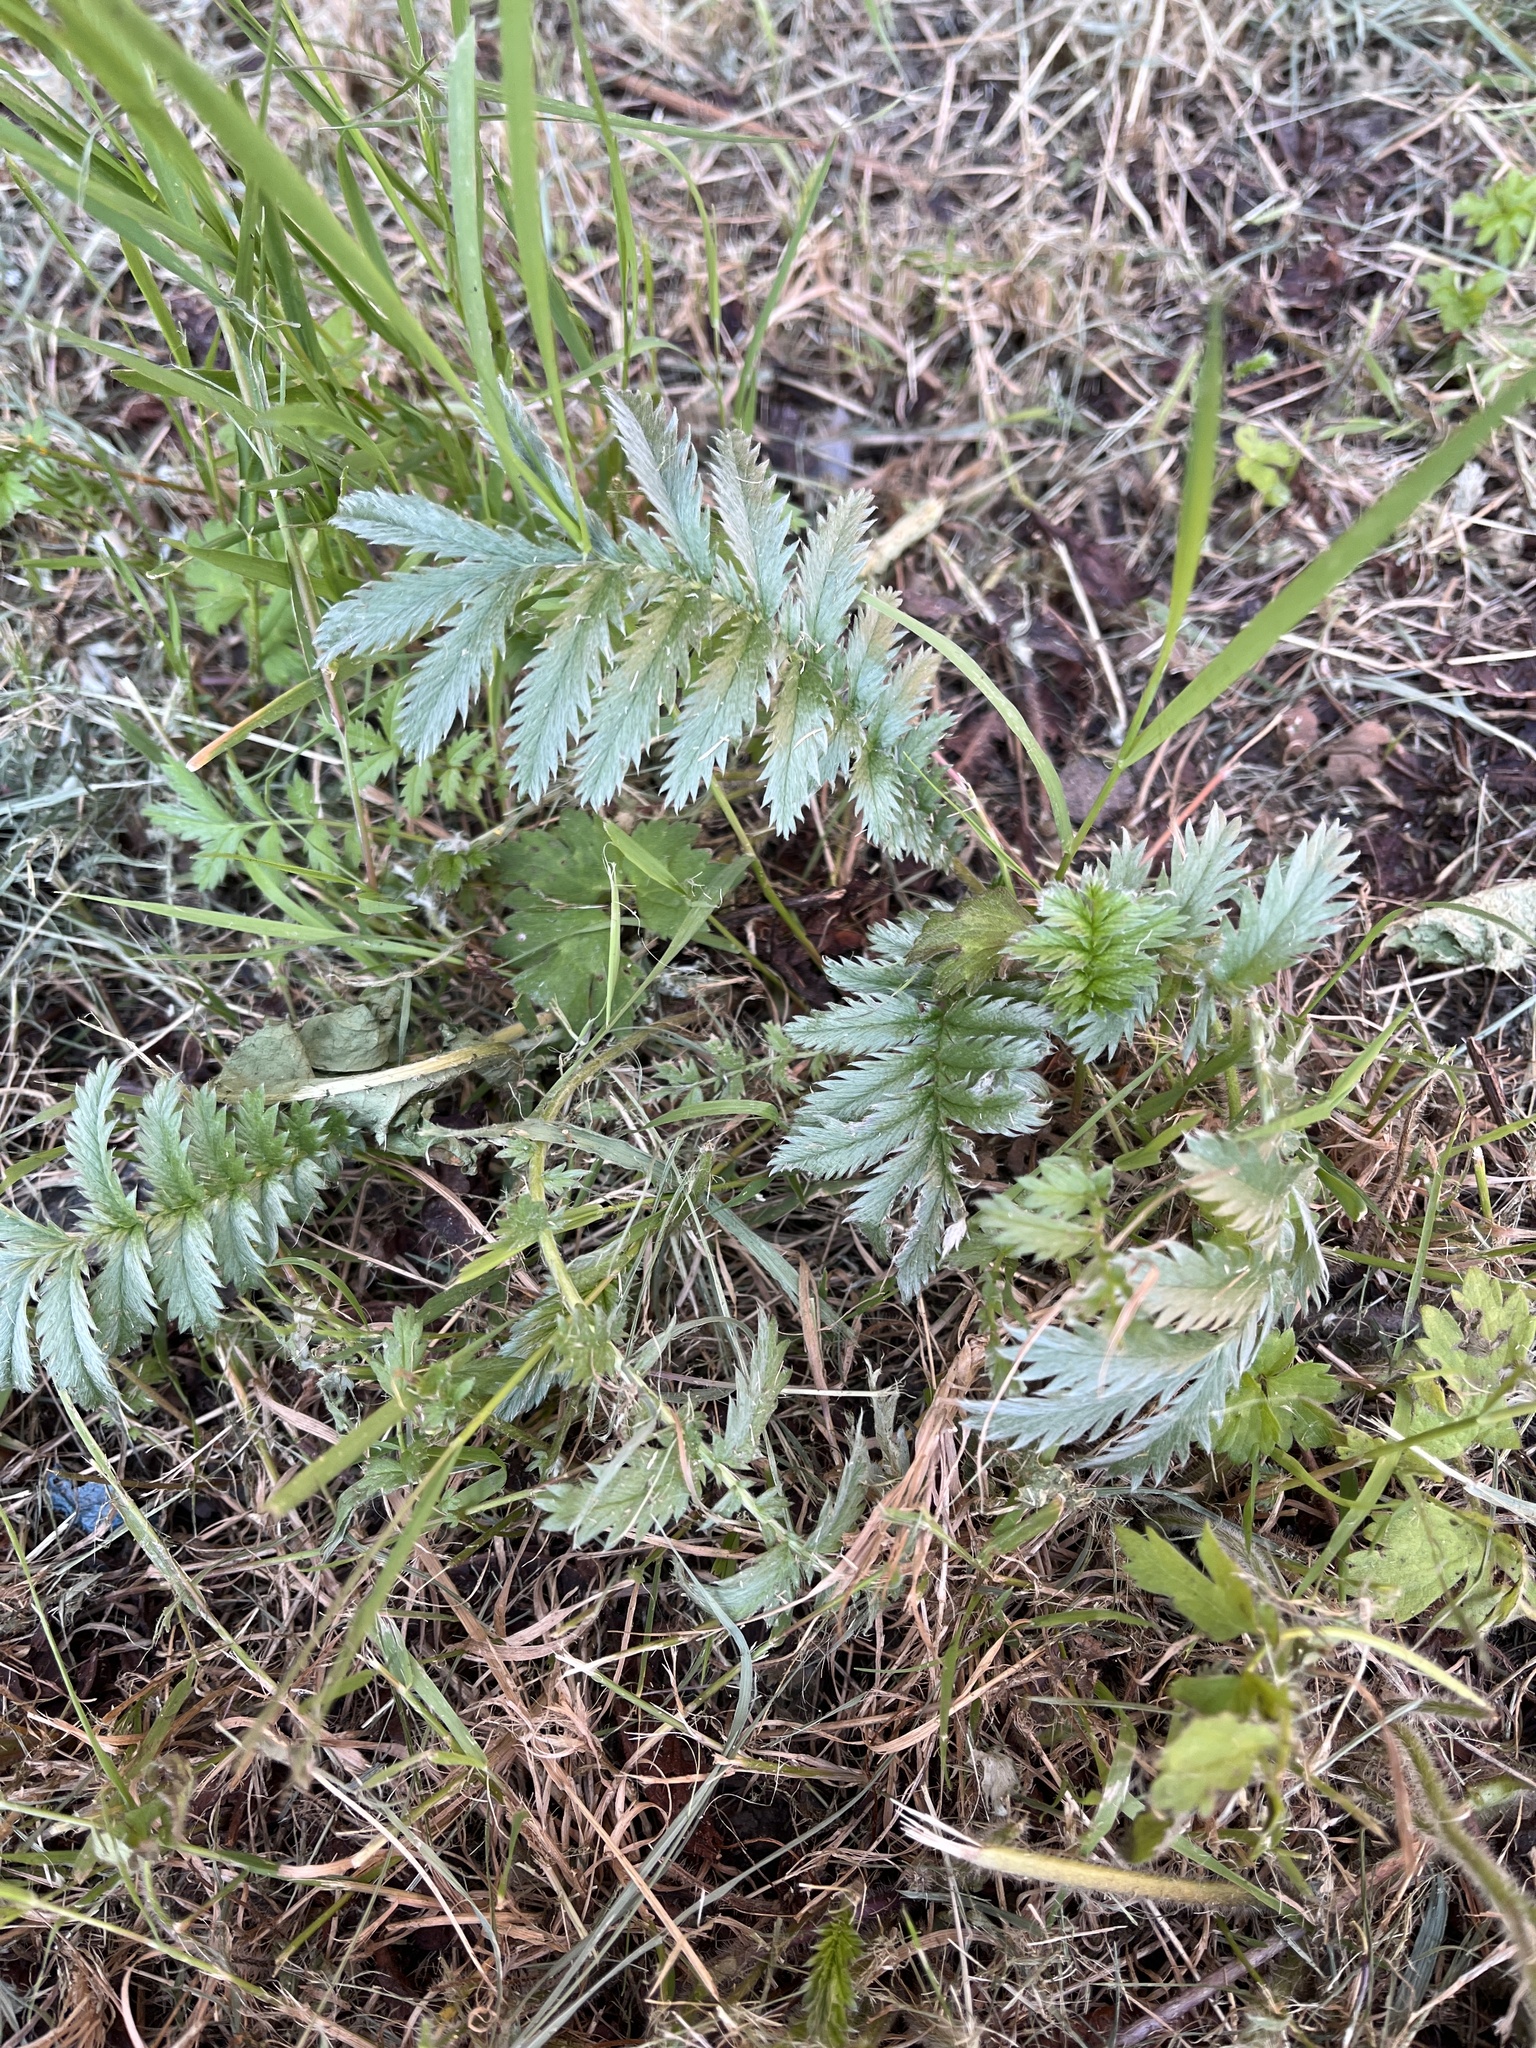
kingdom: Plantae
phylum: Tracheophyta
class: Magnoliopsida
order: Rosales
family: Rosaceae
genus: Argentina
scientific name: Argentina anserina
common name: Common silverweed
